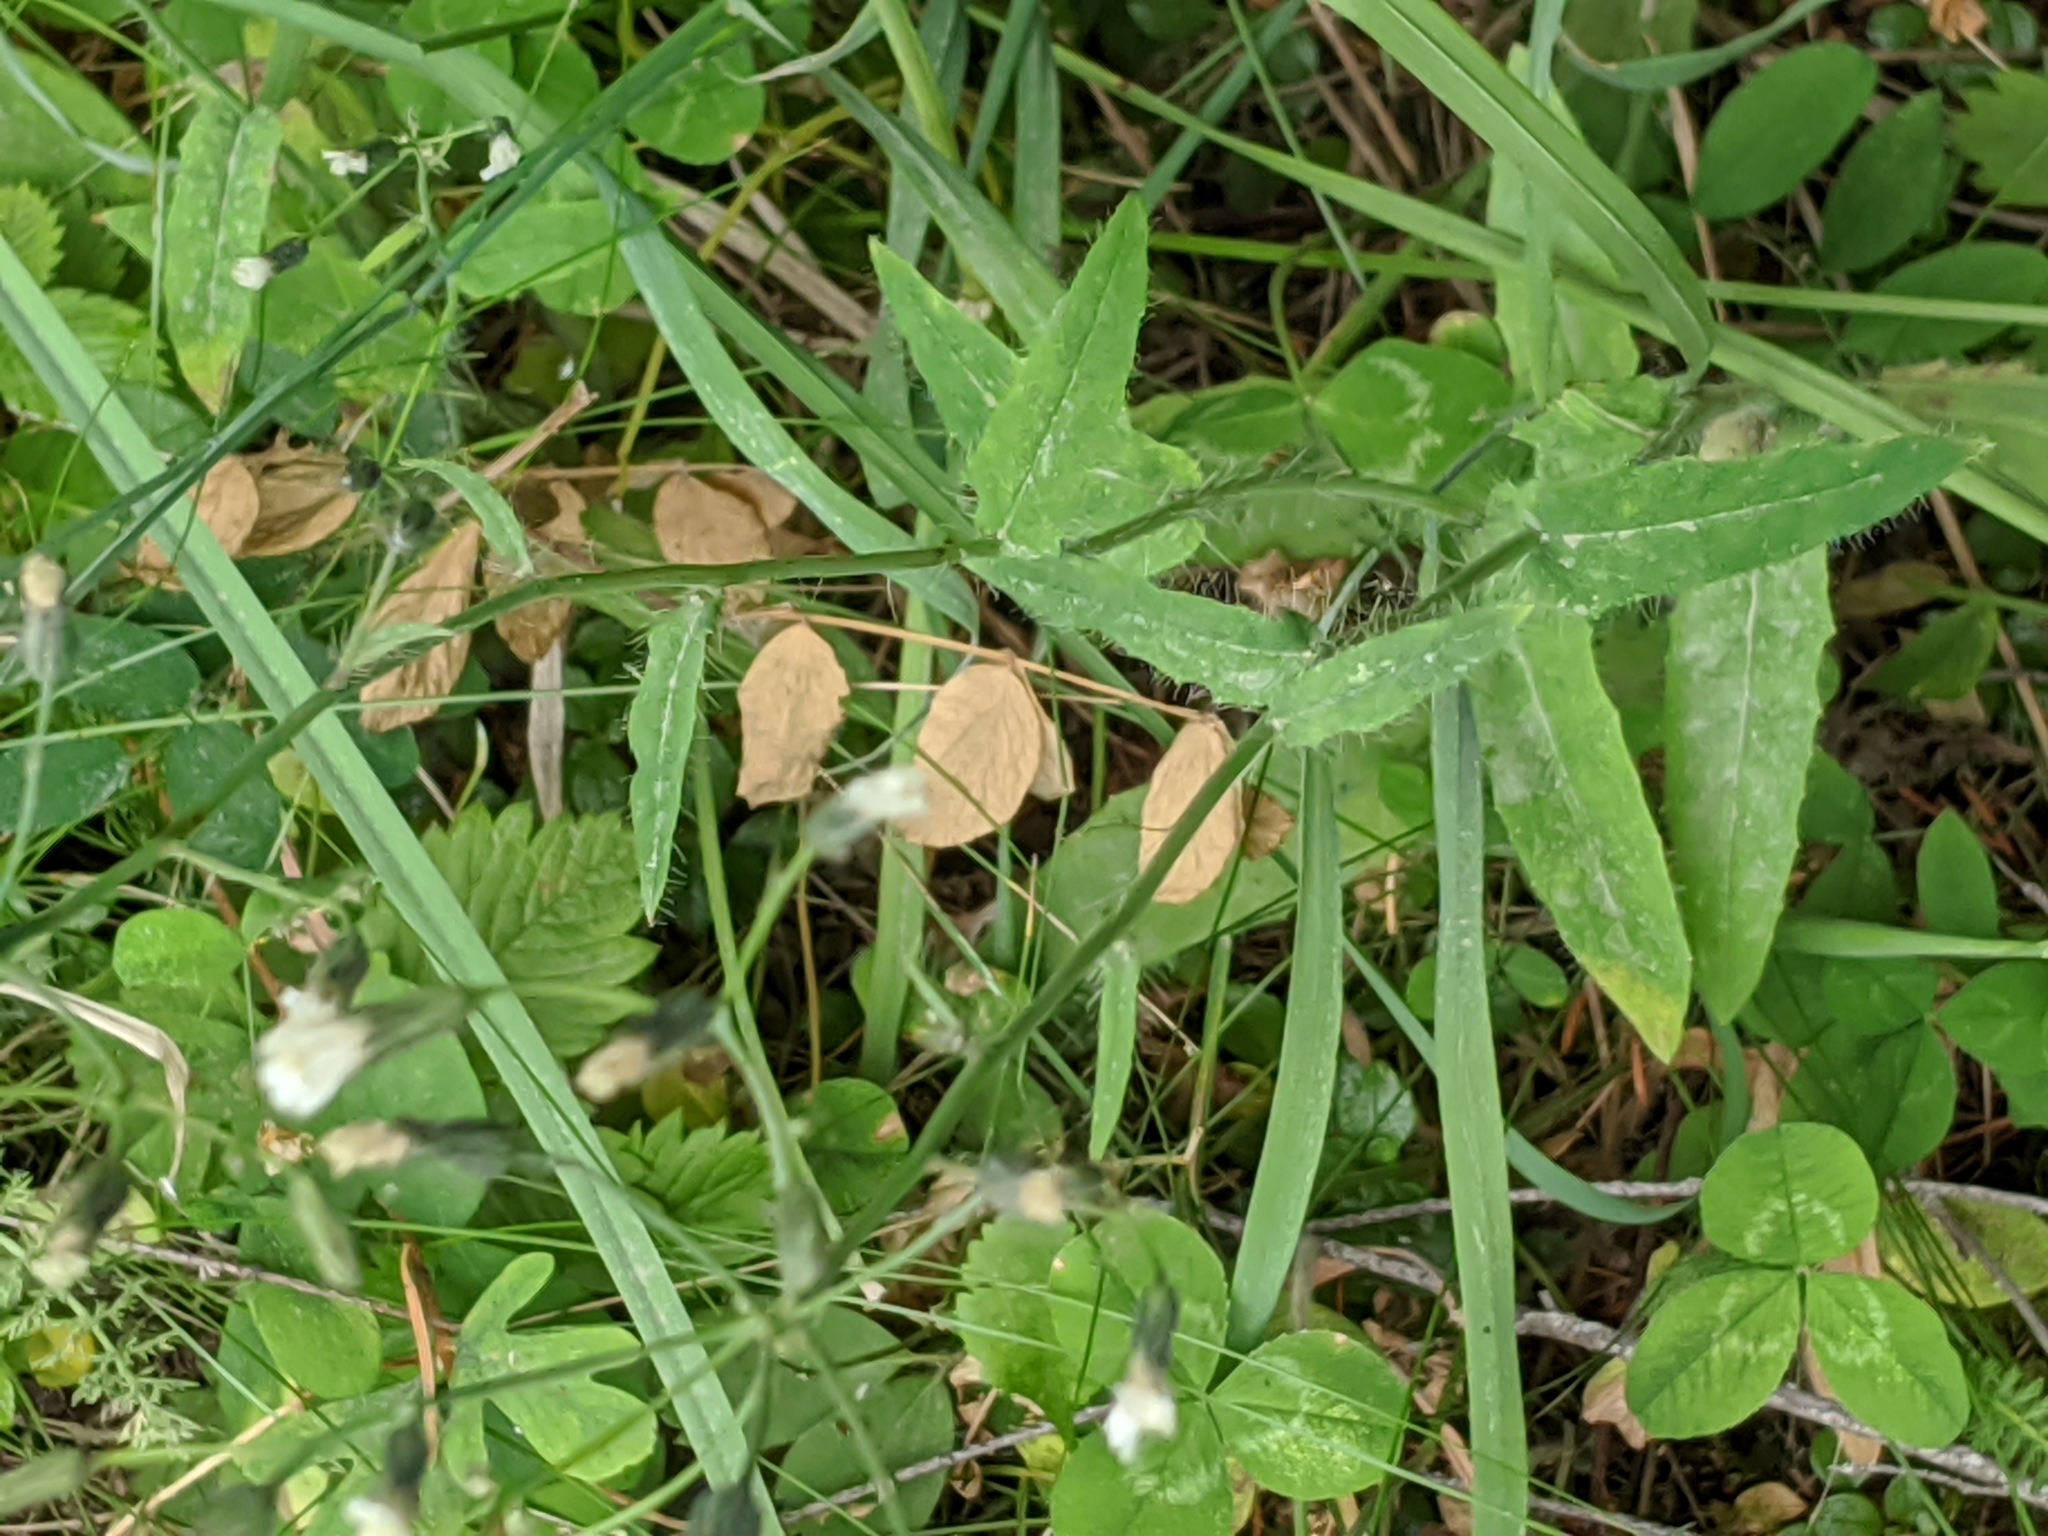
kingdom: Plantae
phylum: Tracheophyta
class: Magnoliopsida
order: Asterales
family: Asteraceae
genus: Hieracium
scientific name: Hieracium albiflorum
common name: White hawkweed
